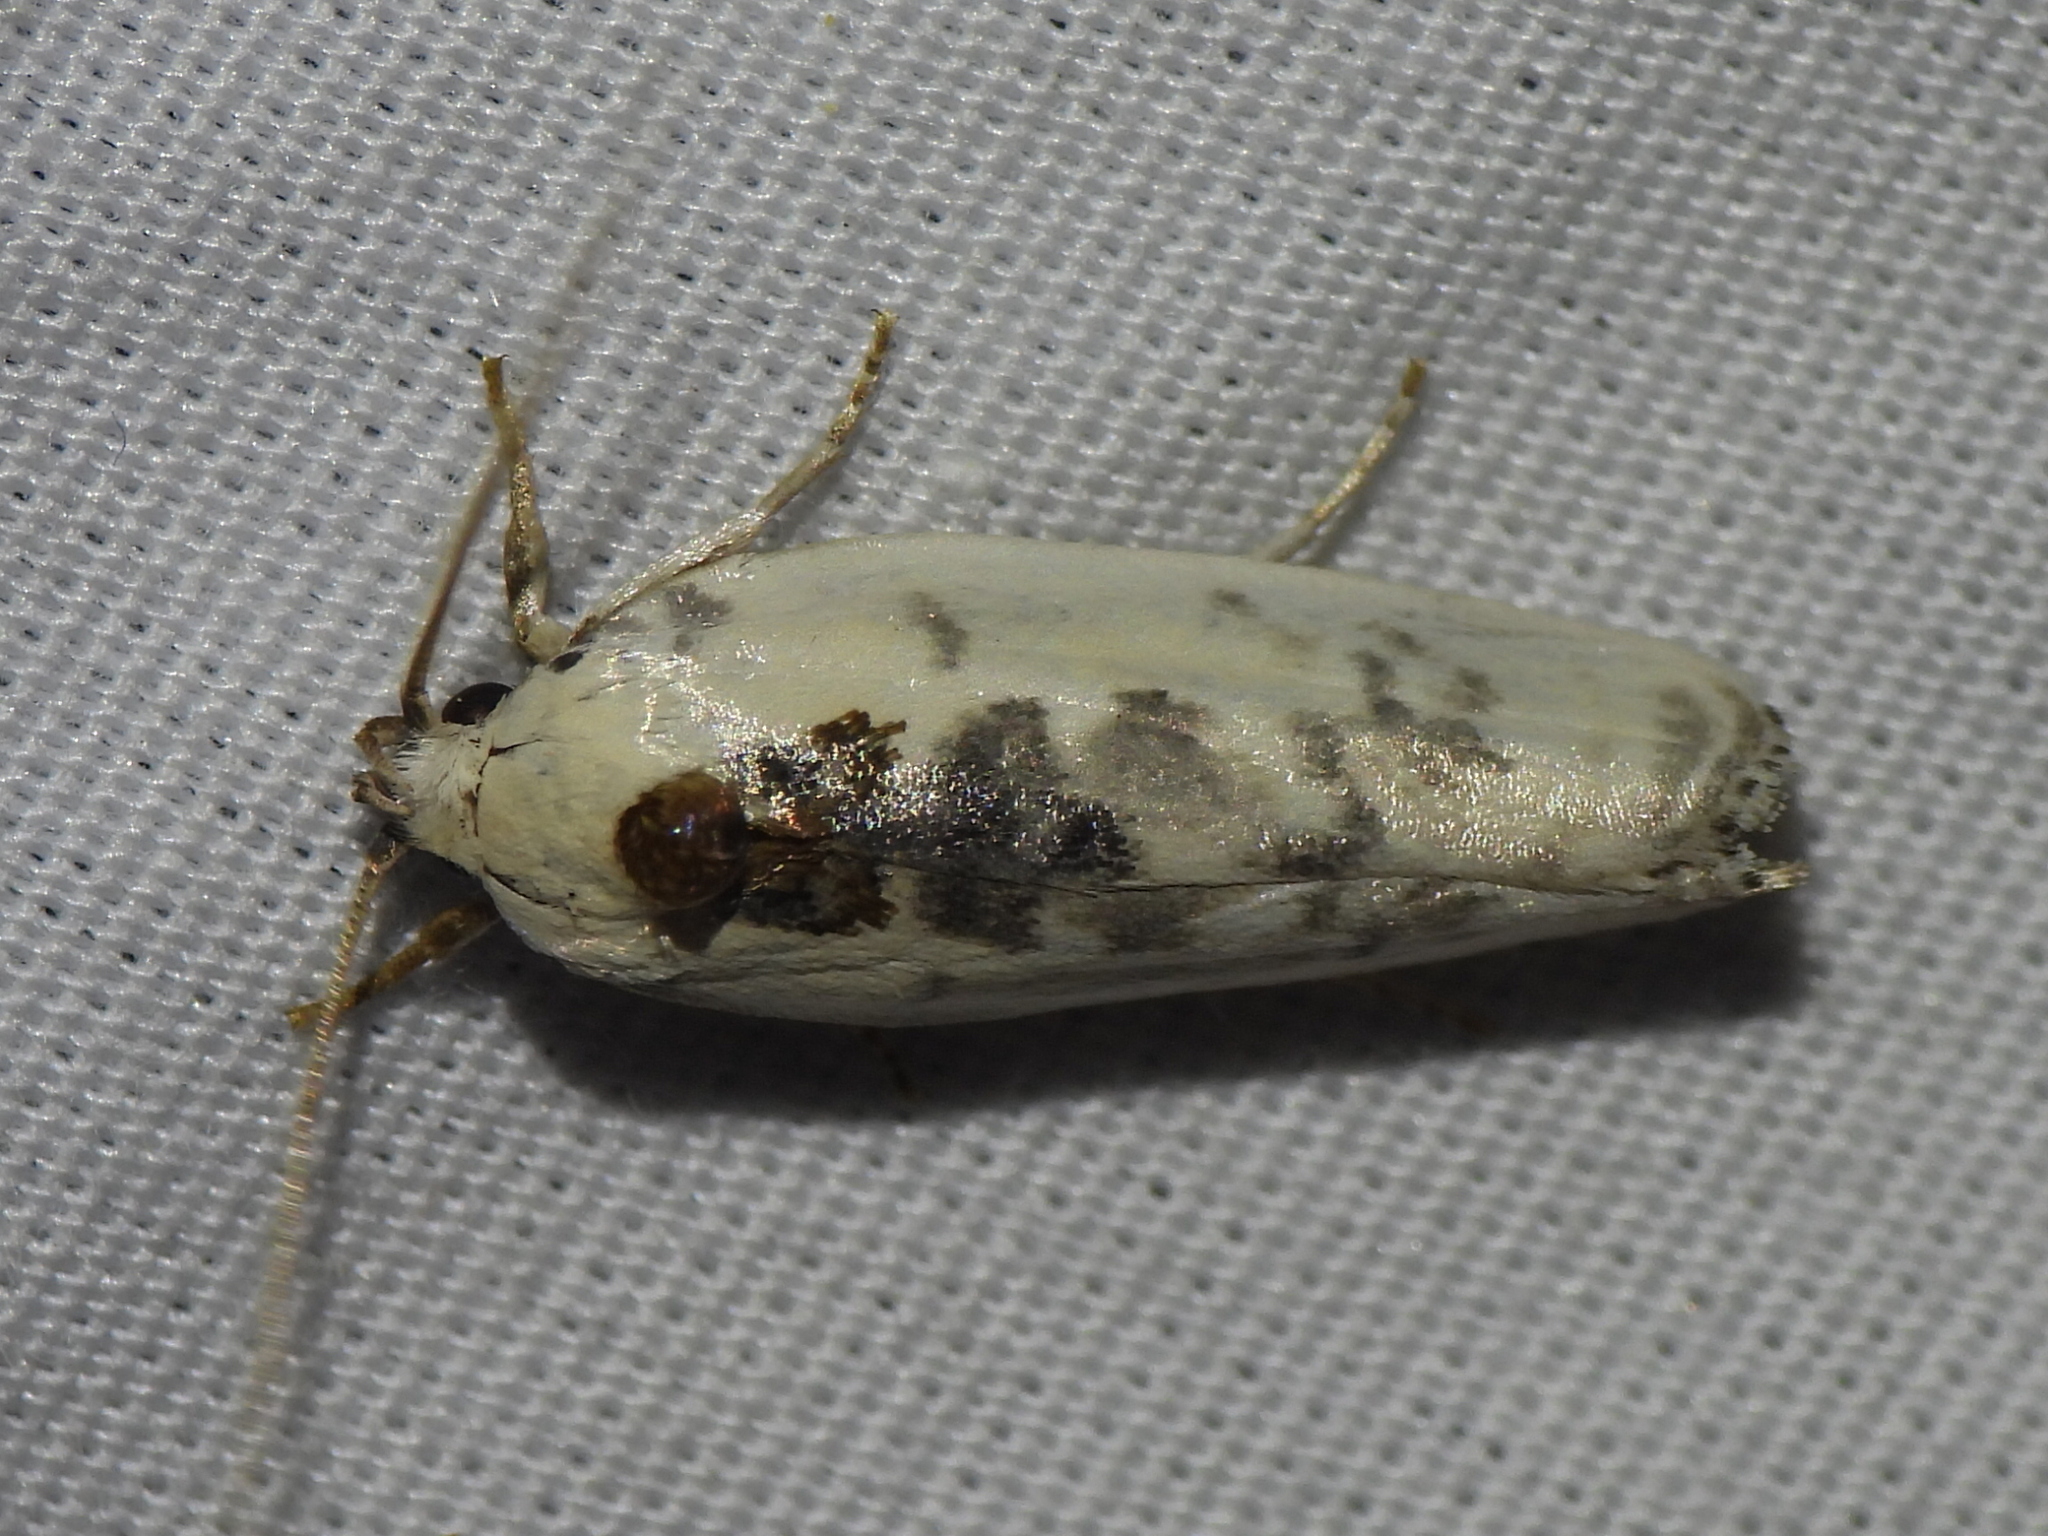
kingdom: Animalia
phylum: Arthropoda
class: Insecta
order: Lepidoptera
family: Depressariidae
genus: Antaeotricha
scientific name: Antaeotricha schlaegeri
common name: Schlaeger's fruitworm moth
